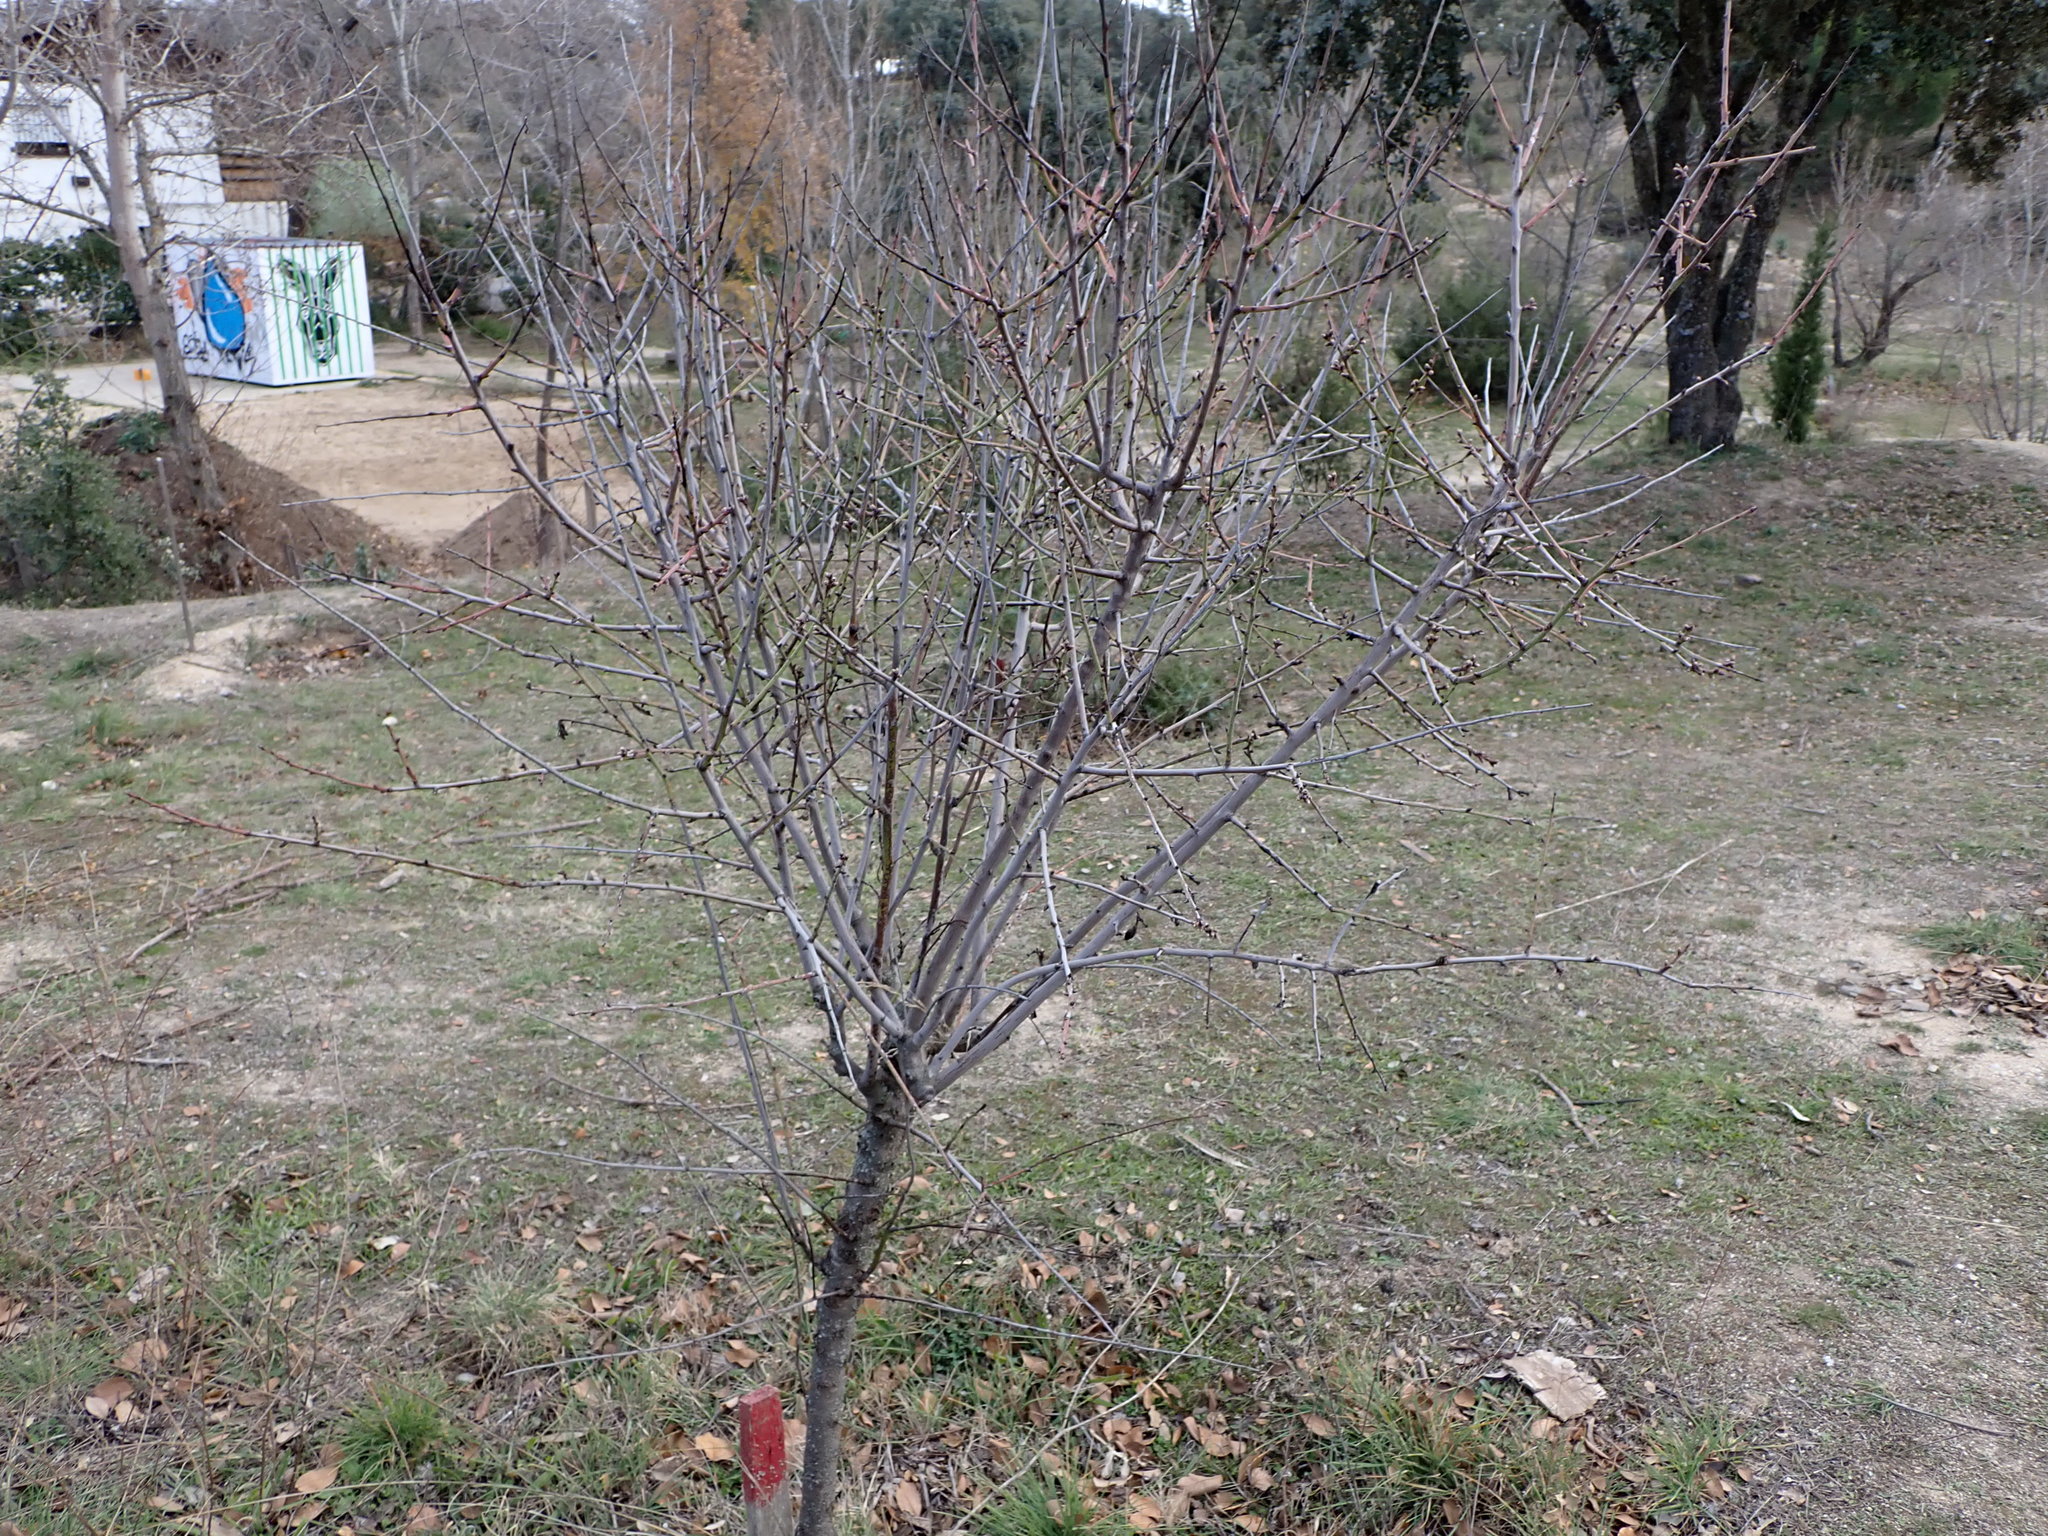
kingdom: Plantae
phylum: Tracheophyta
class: Magnoliopsida
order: Rosales
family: Rosaceae
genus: Prunus
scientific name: Prunus amygdalus
